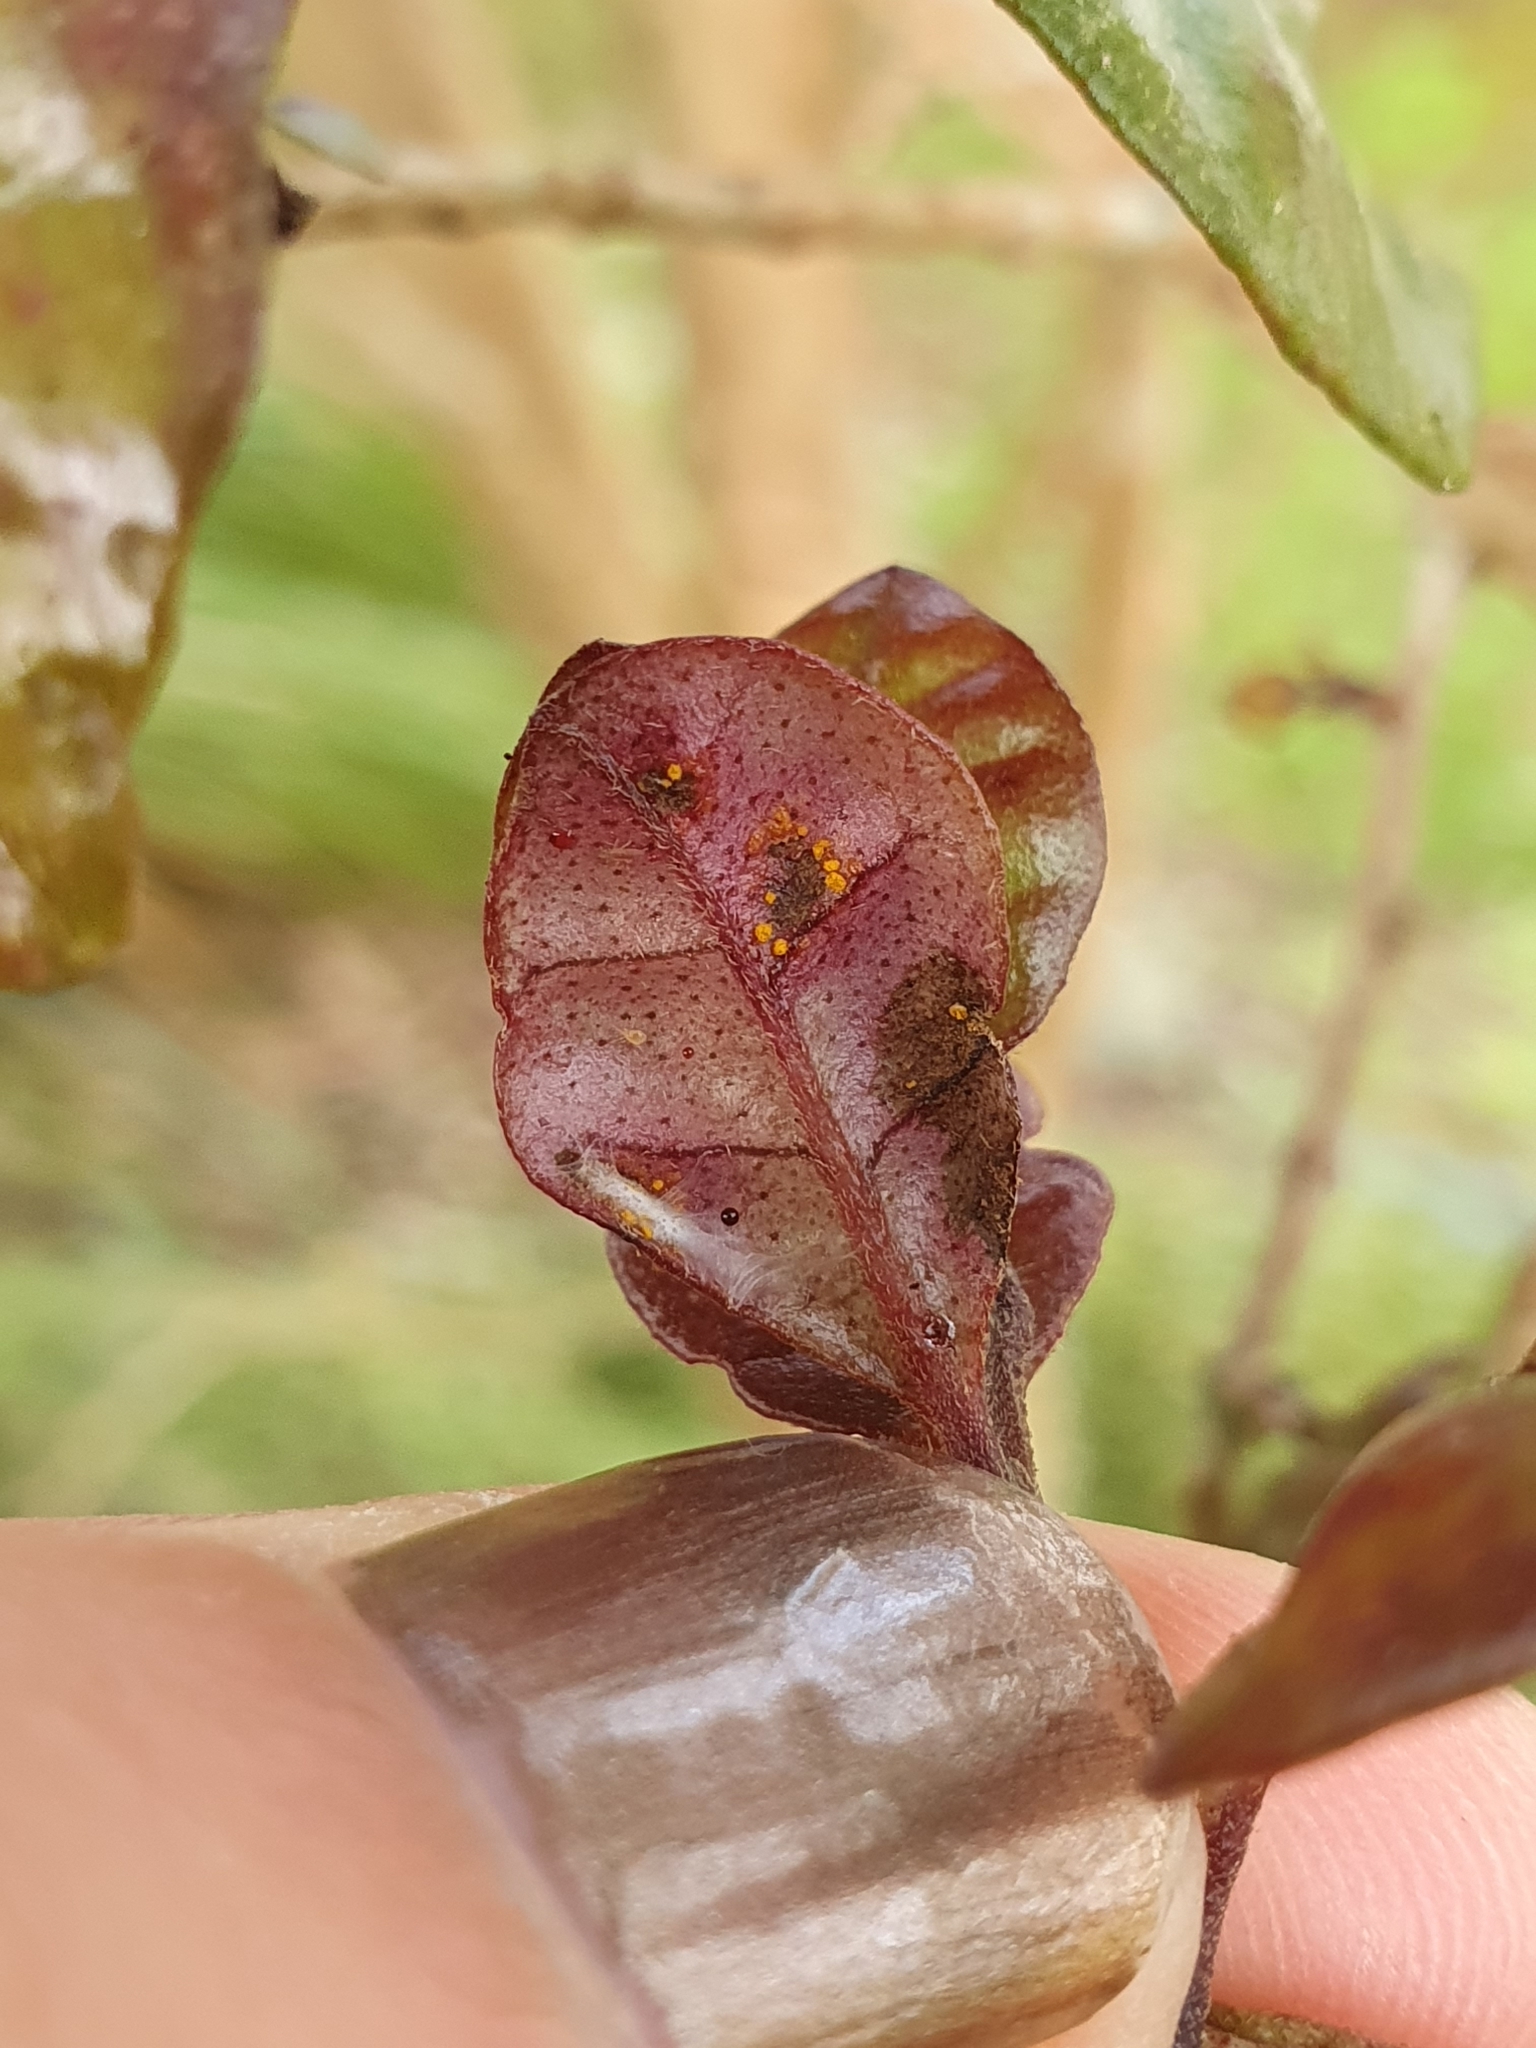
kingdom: Fungi
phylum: Basidiomycota
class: Pucciniomycetes
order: Pucciniales
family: Sphaerophragmiaceae
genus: Austropuccinia
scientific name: Austropuccinia psidii
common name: Myrtle rust
